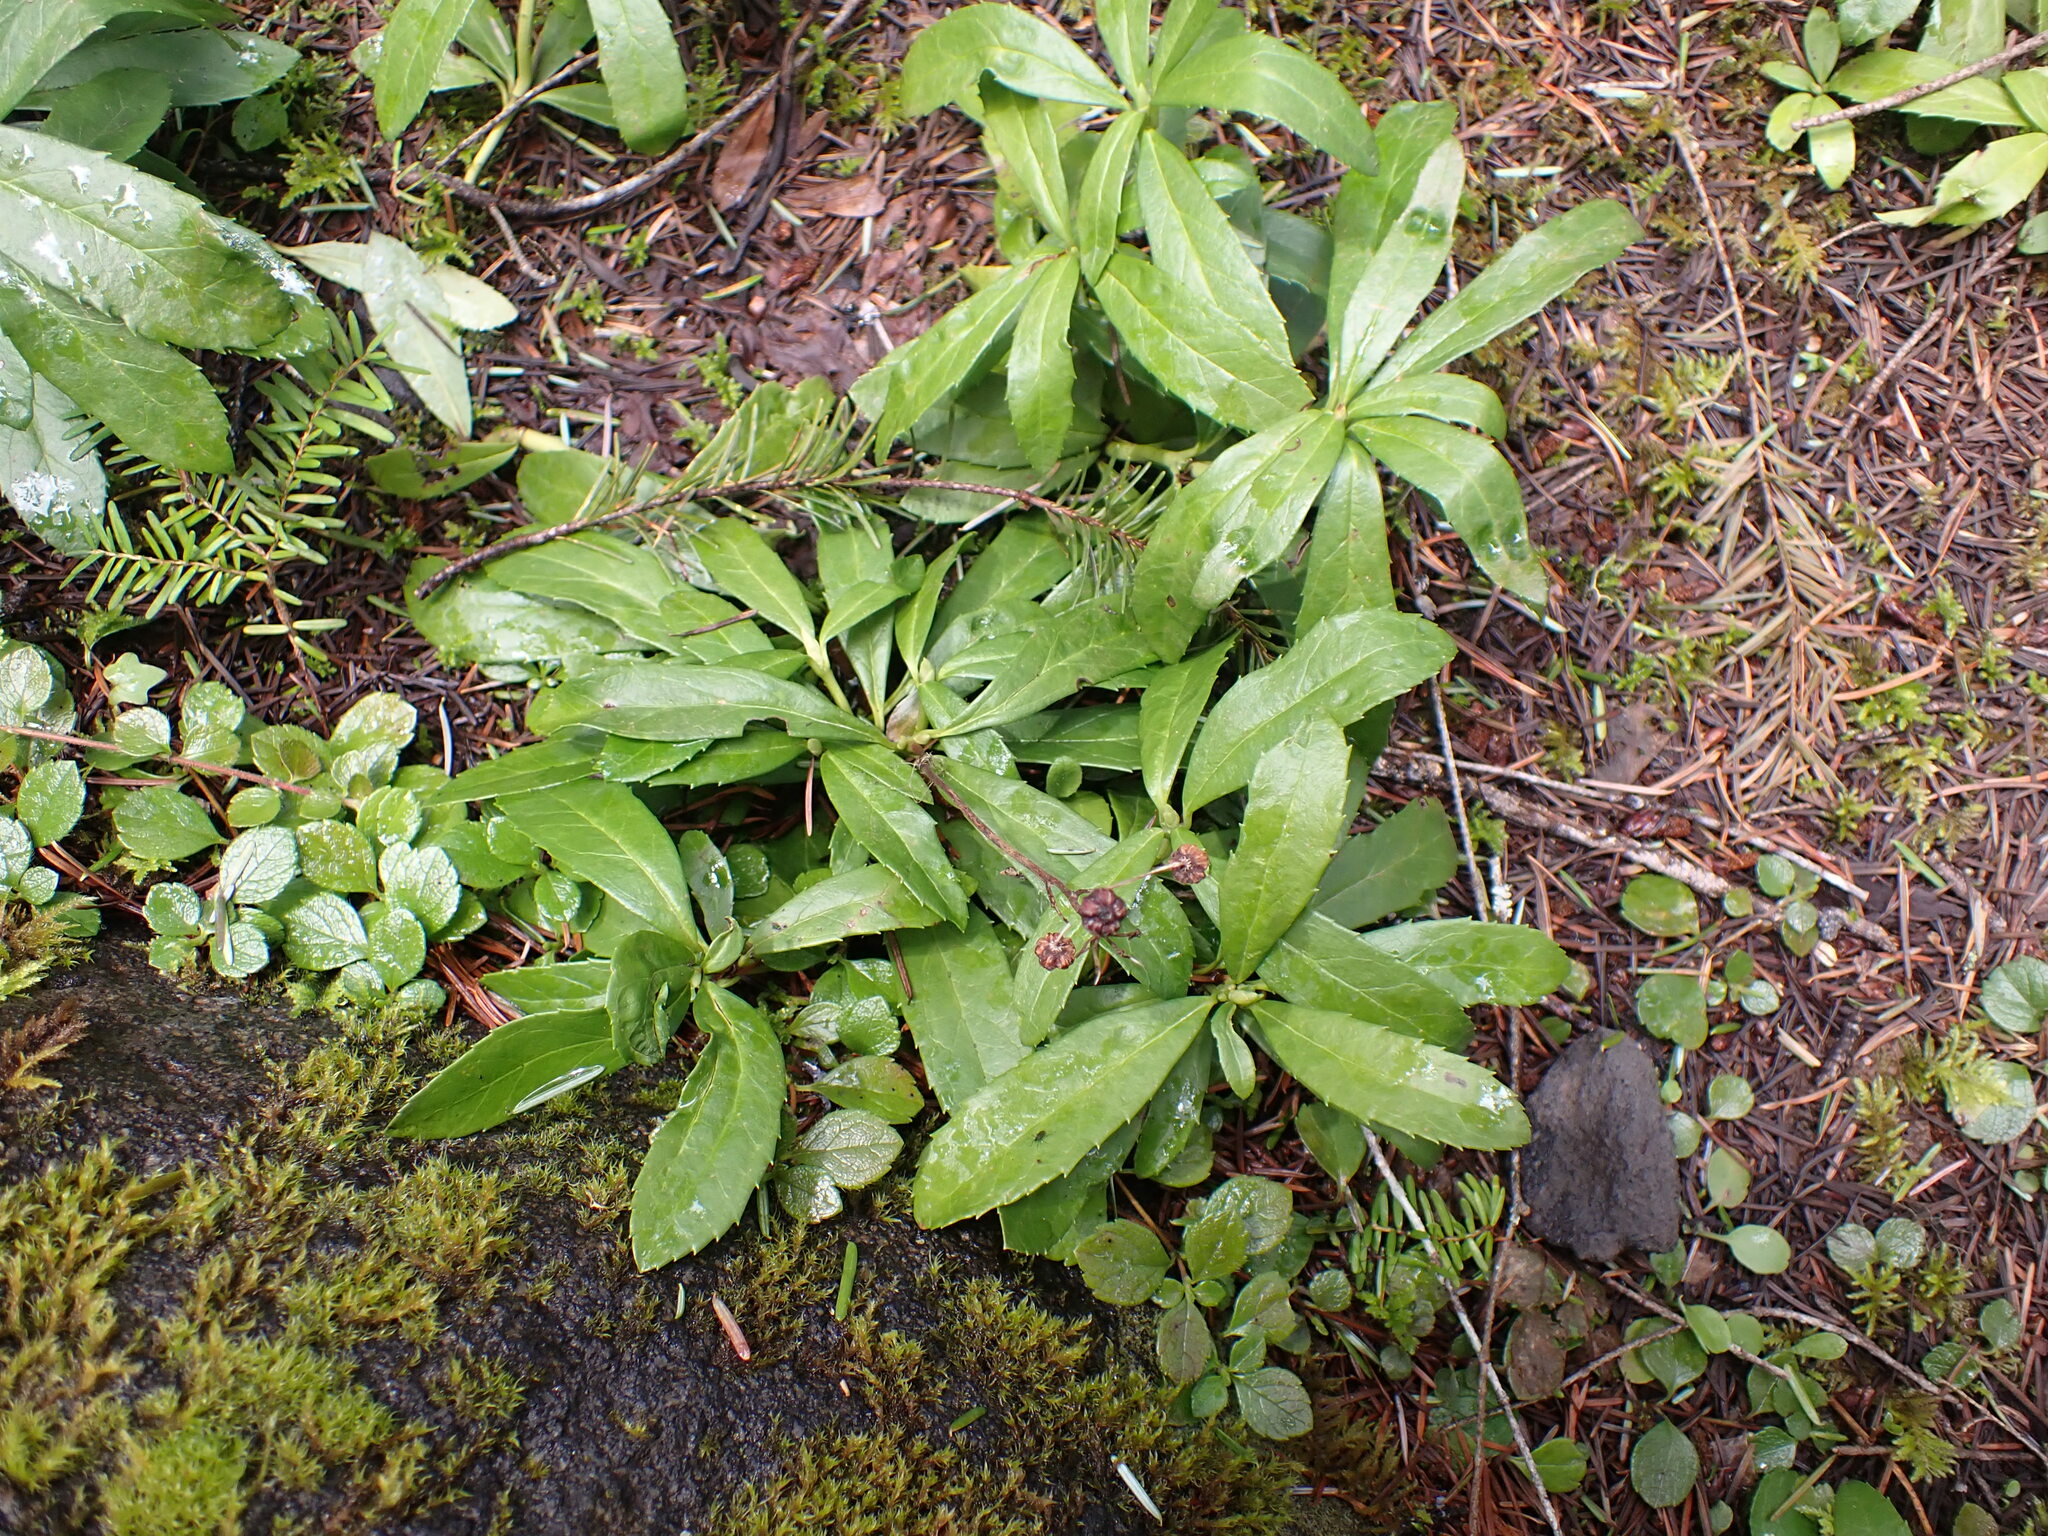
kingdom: Plantae
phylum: Tracheophyta
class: Magnoliopsida
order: Ericales
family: Ericaceae
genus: Chimaphila
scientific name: Chimaphila umbellata
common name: Pipsissewa
